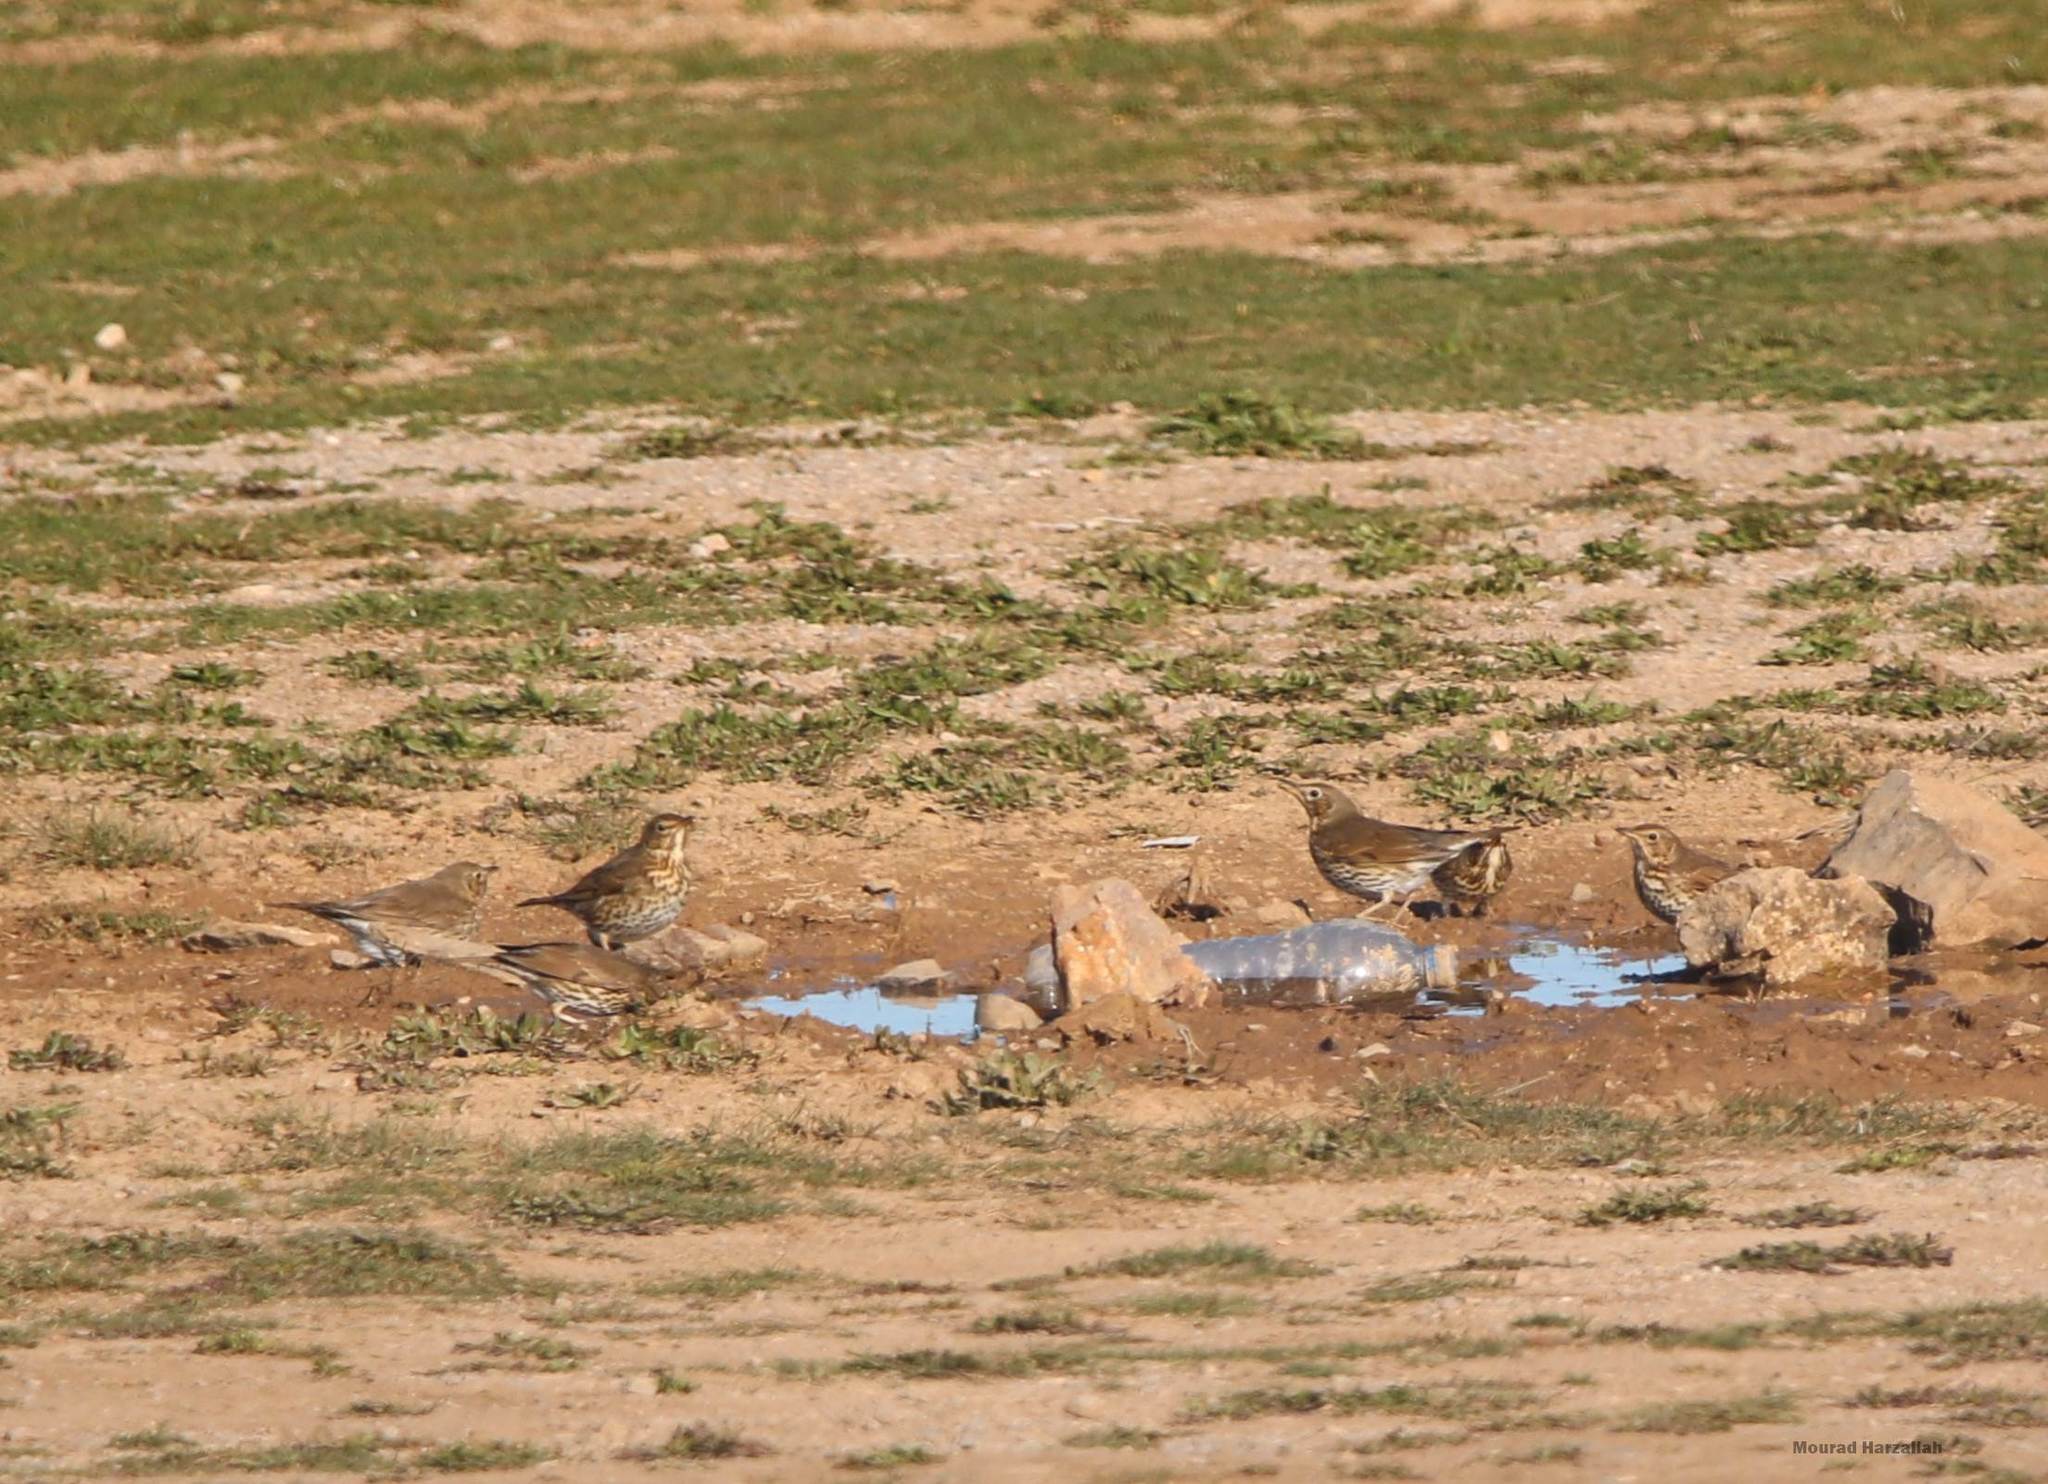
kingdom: Animalia
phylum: Chordata
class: Aves
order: Passeriformes
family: Turdidae
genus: Turdus
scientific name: Turdus philomelos
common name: Song thrush
